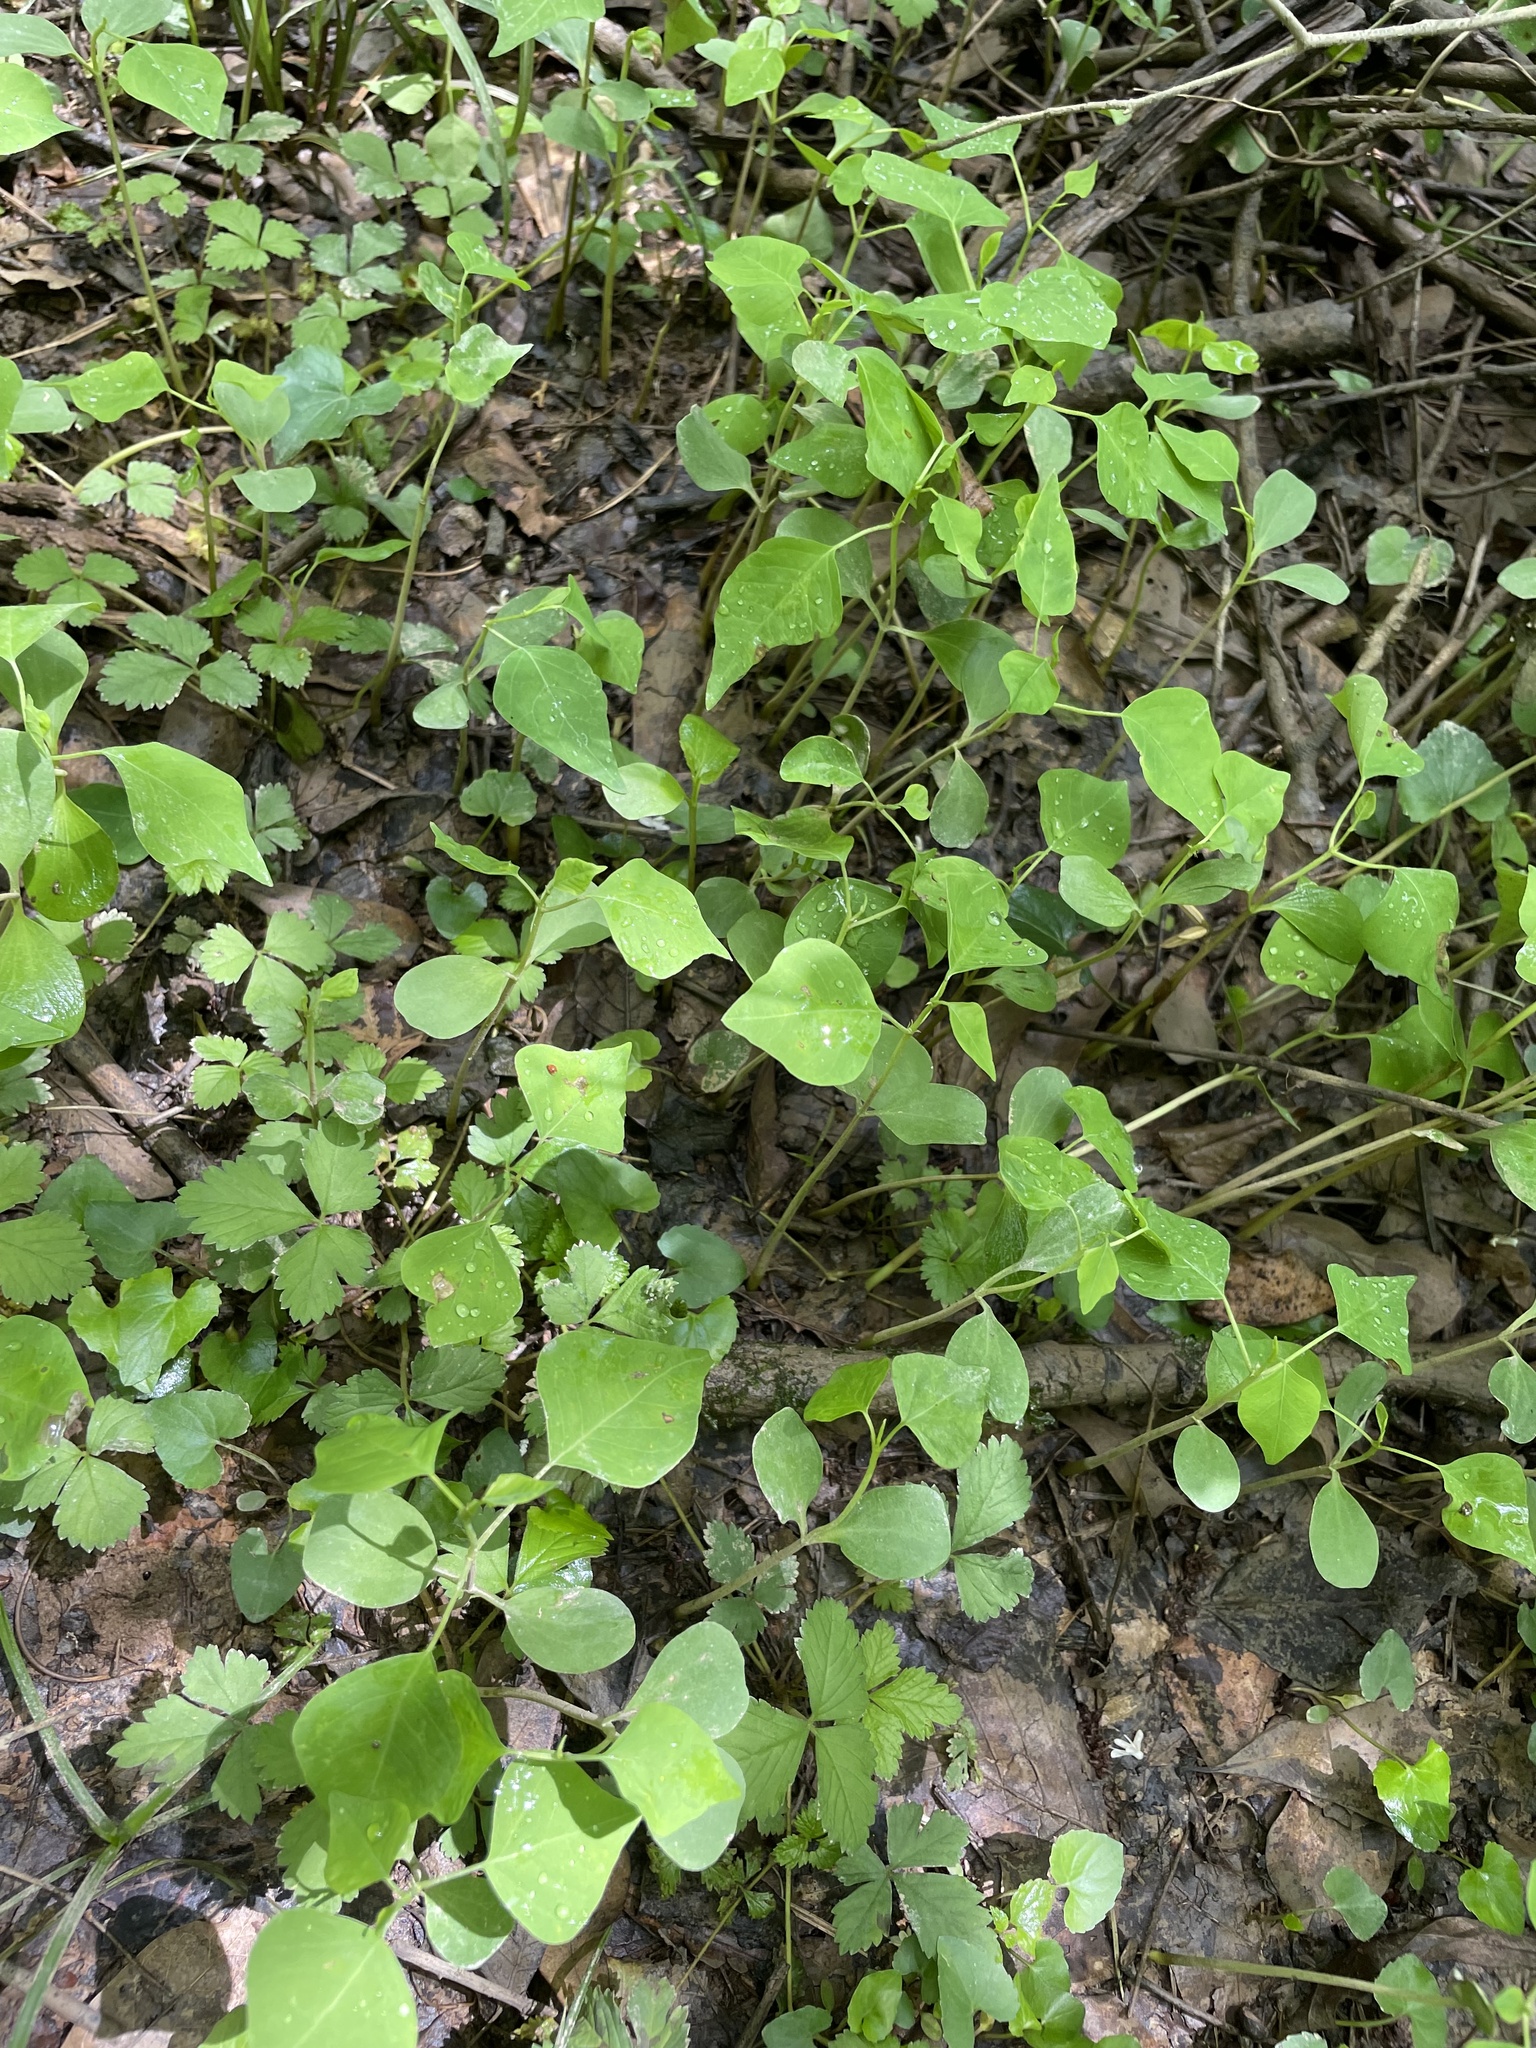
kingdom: Plantae
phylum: Tracheophyta
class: Magnoliopsida
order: Malpighiales
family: Euphorbiaceae
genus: Triadica
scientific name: Triadica sebifera
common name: Chinese tallow
